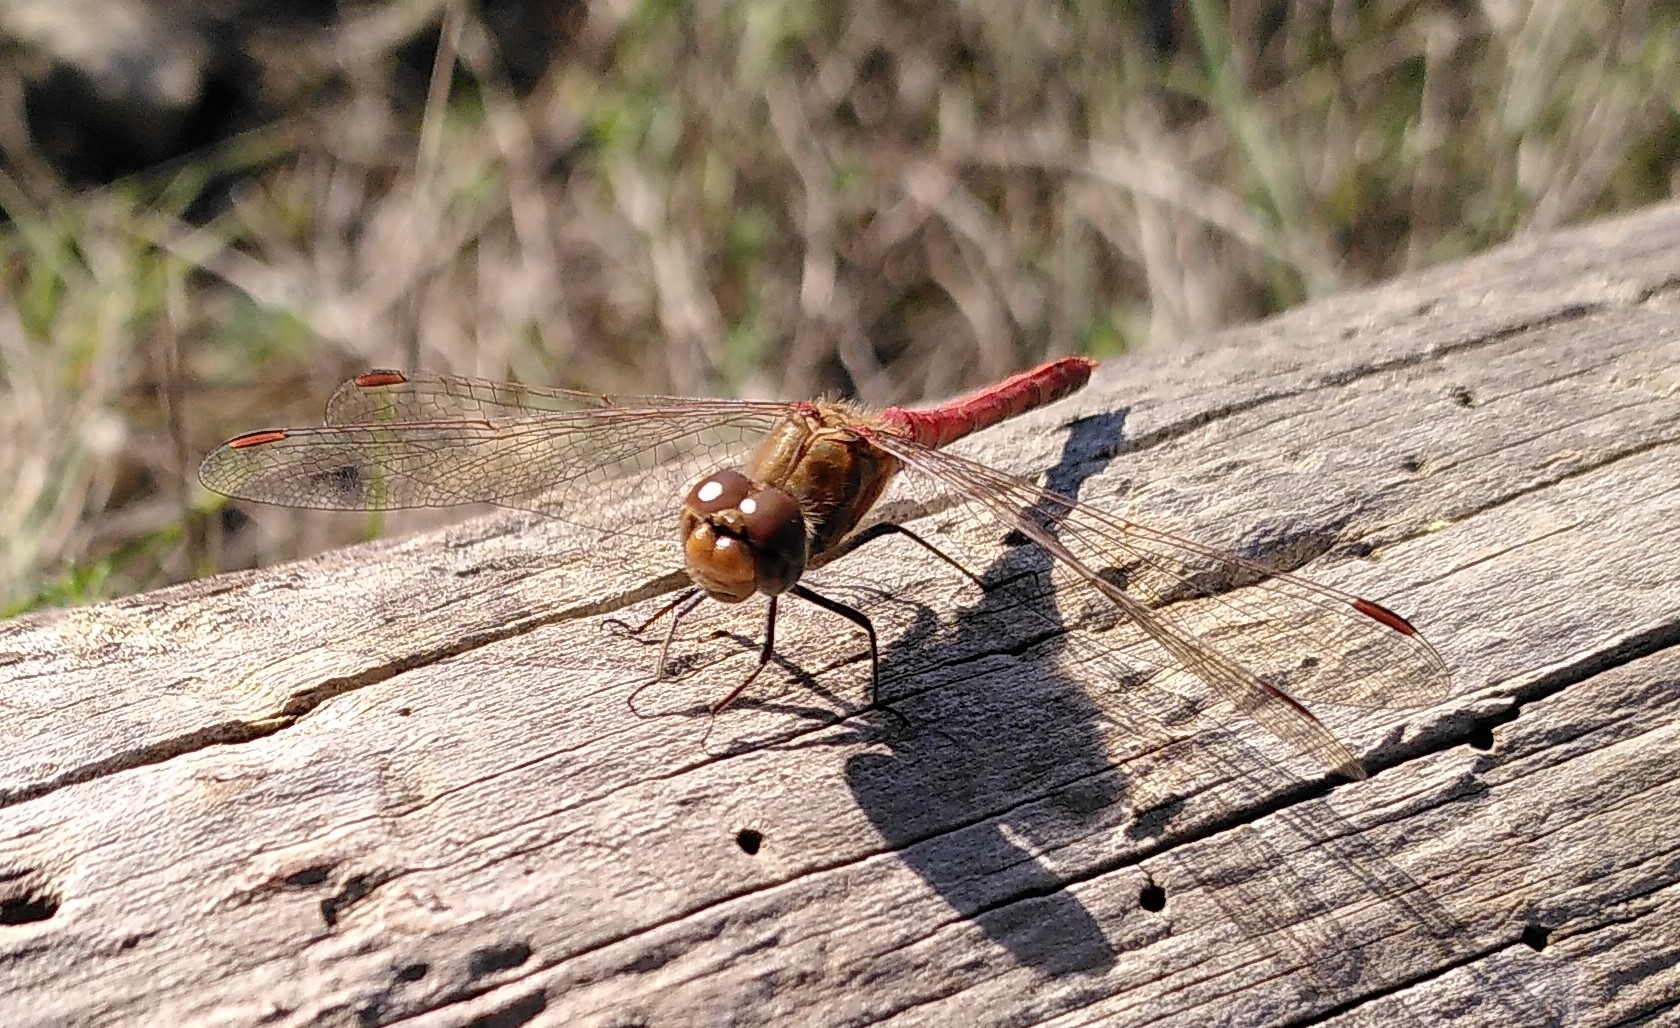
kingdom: Animalia
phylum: Arthropoda
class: Insecta
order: Odonata
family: Libellulidae
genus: Sympetrum
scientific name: Sympetrum striolatum
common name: Common darter
